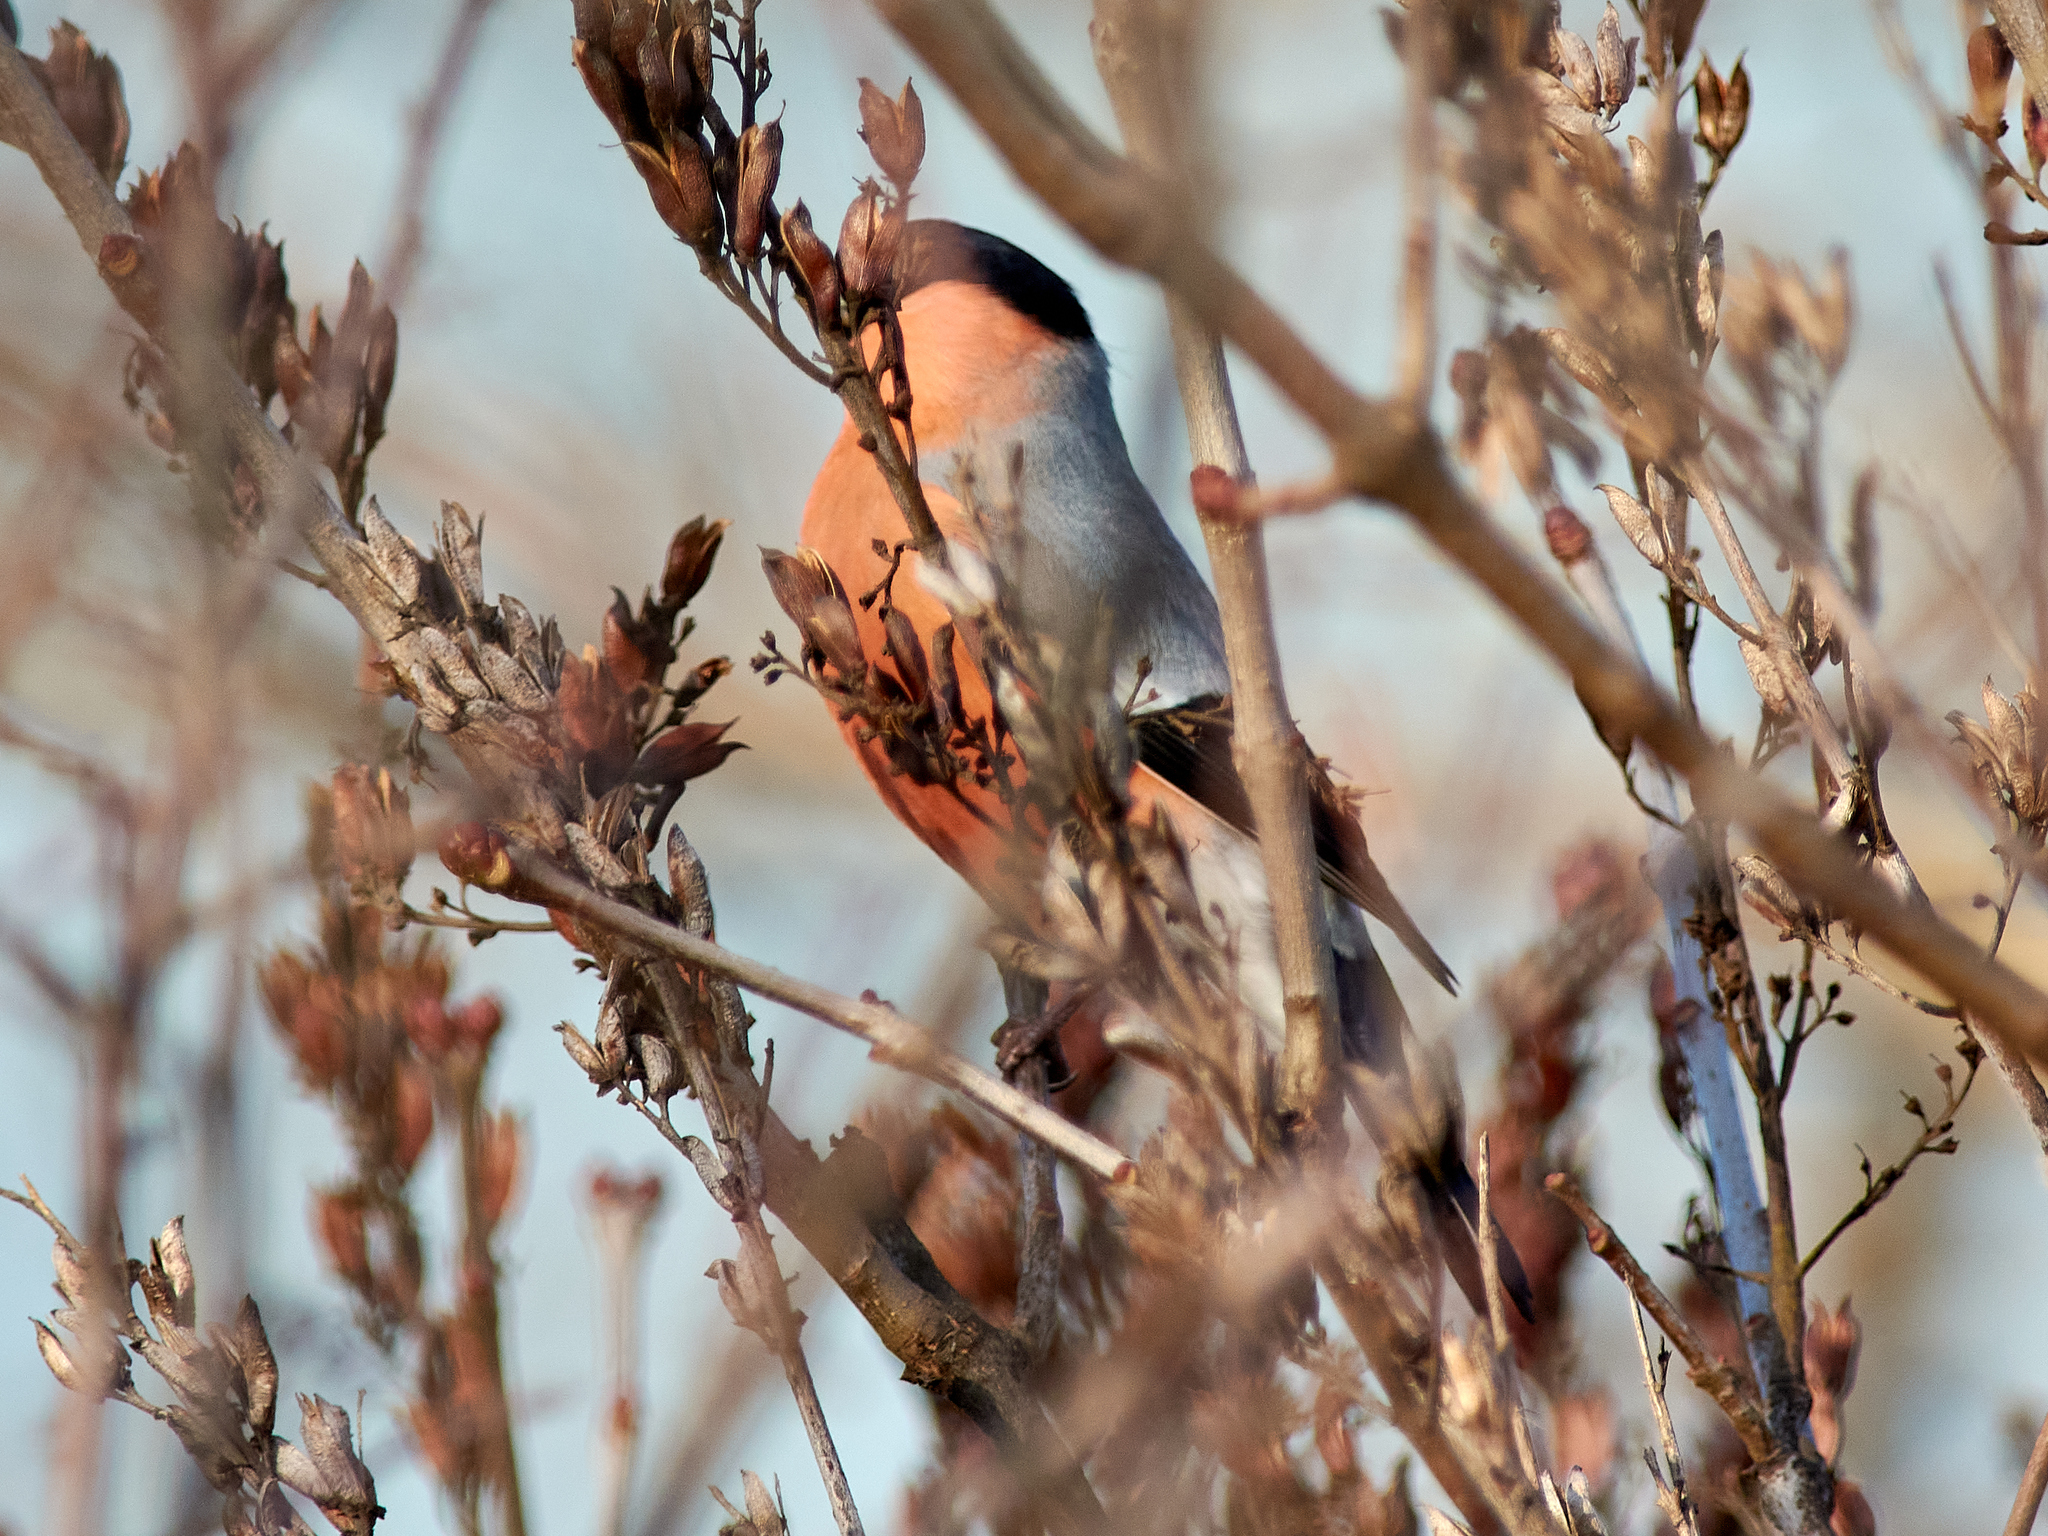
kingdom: Animalia
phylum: Chordata
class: Aves
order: Passeriformes
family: Fringillidae
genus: Pyrrhula
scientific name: Pyrrhula pyrrhula
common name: Eurasian bullfinch
